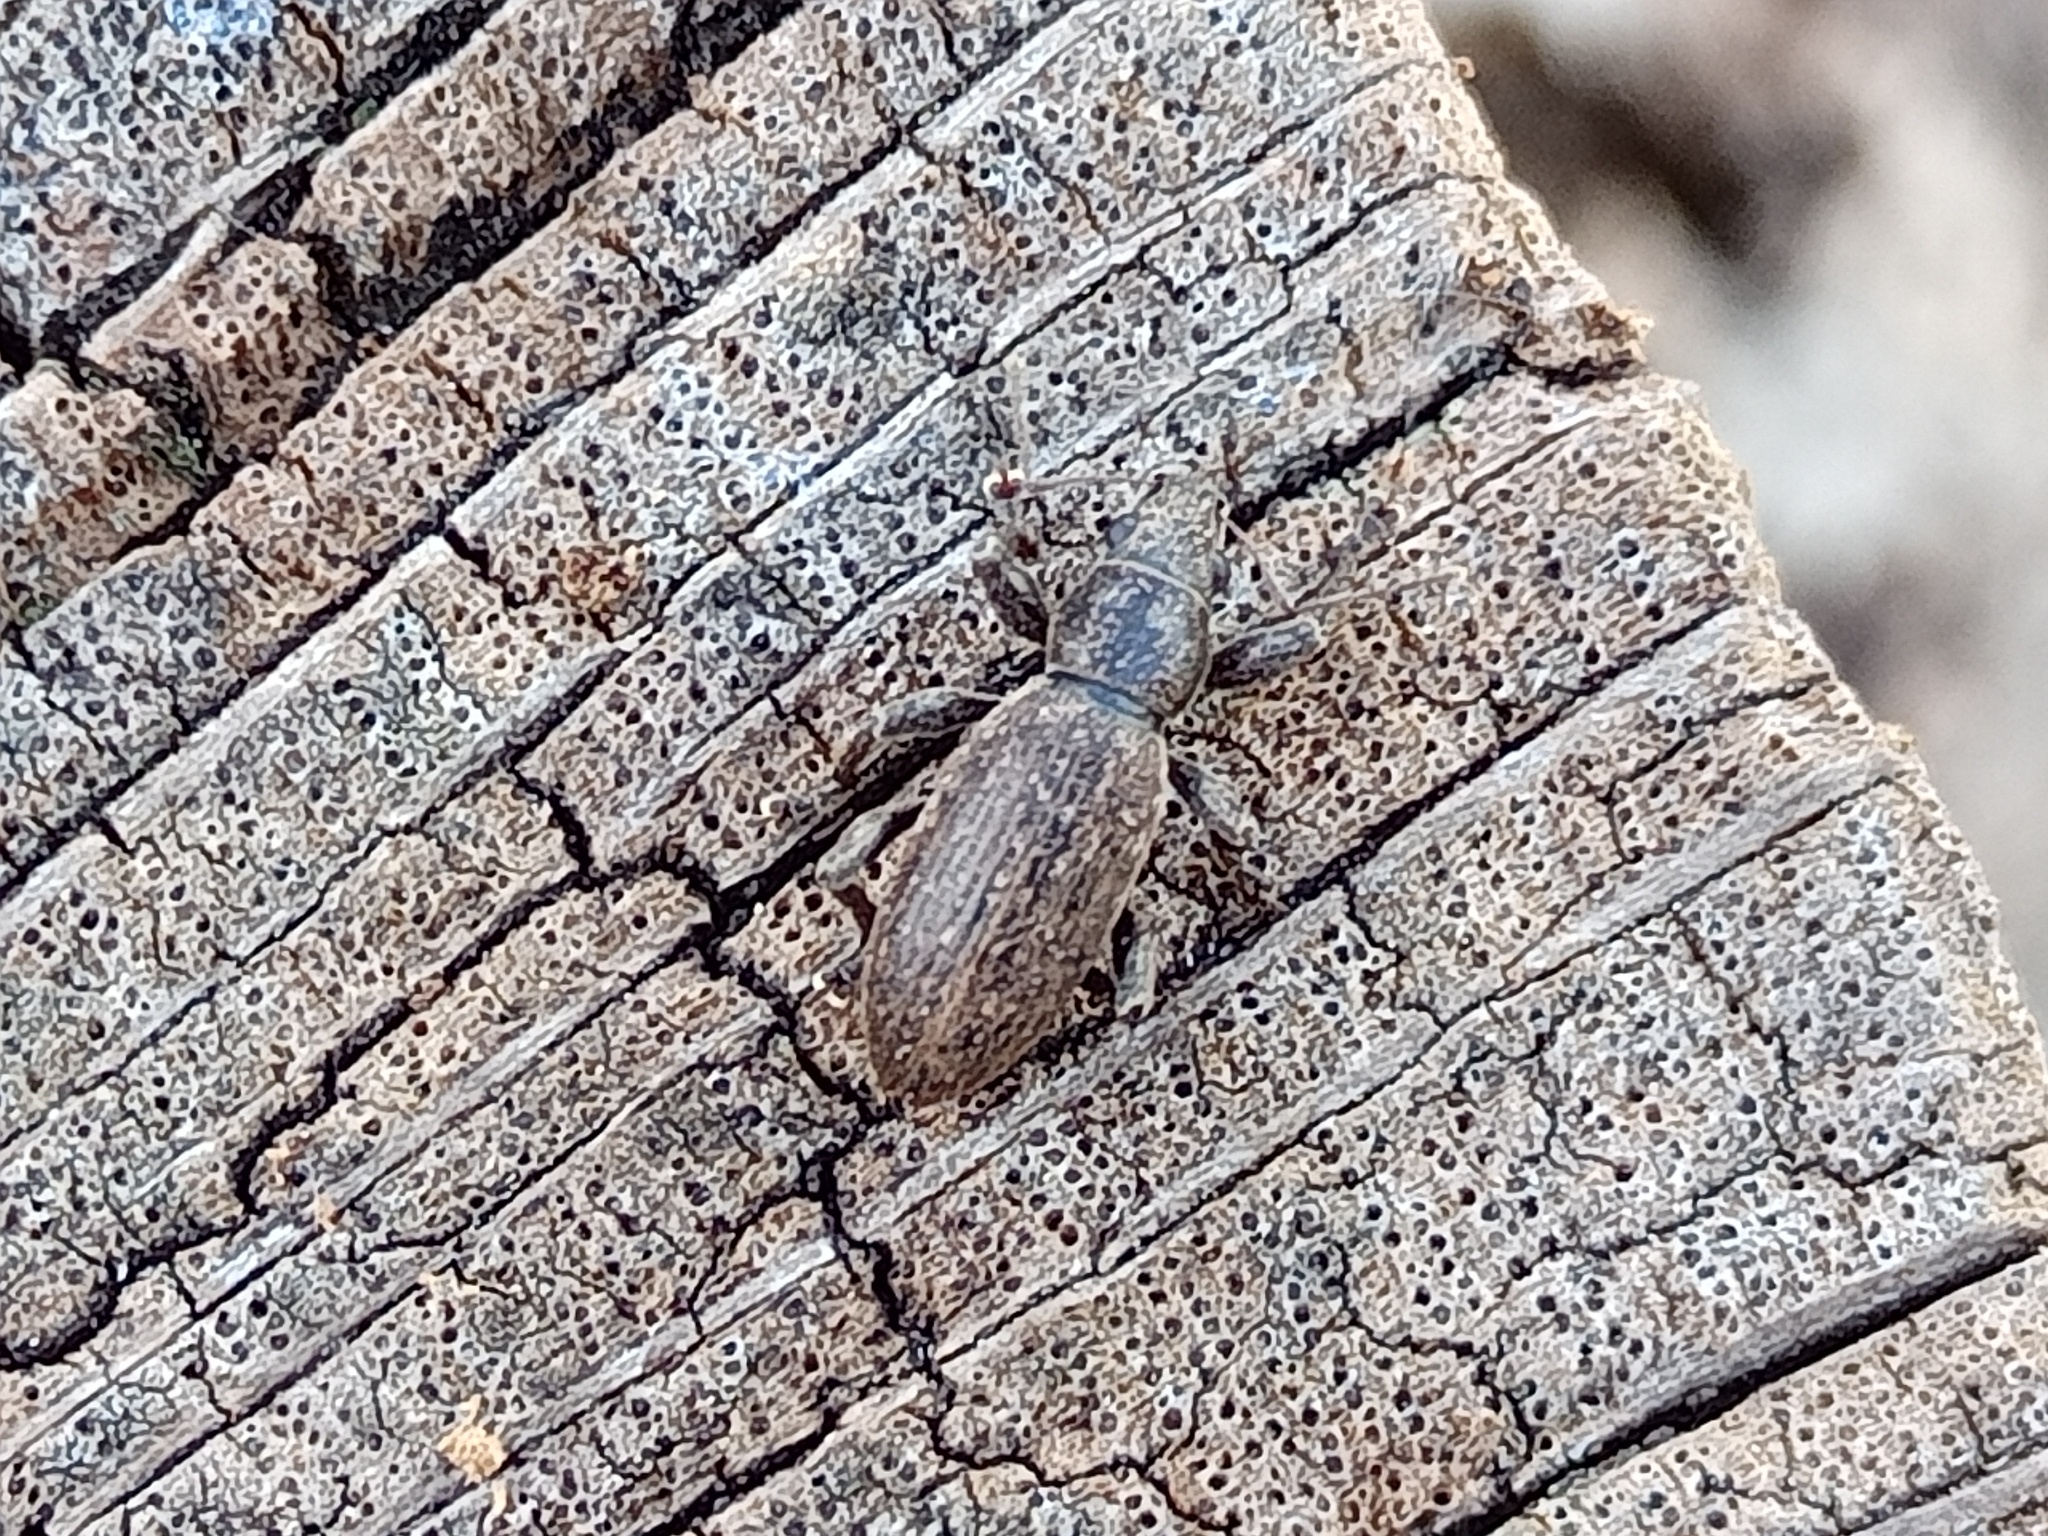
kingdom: Animalia
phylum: Arthropoda
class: Insecta
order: Coleoptera
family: Curculionidae
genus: Brachyderes
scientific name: Brachyderes incanus
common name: Weevil
